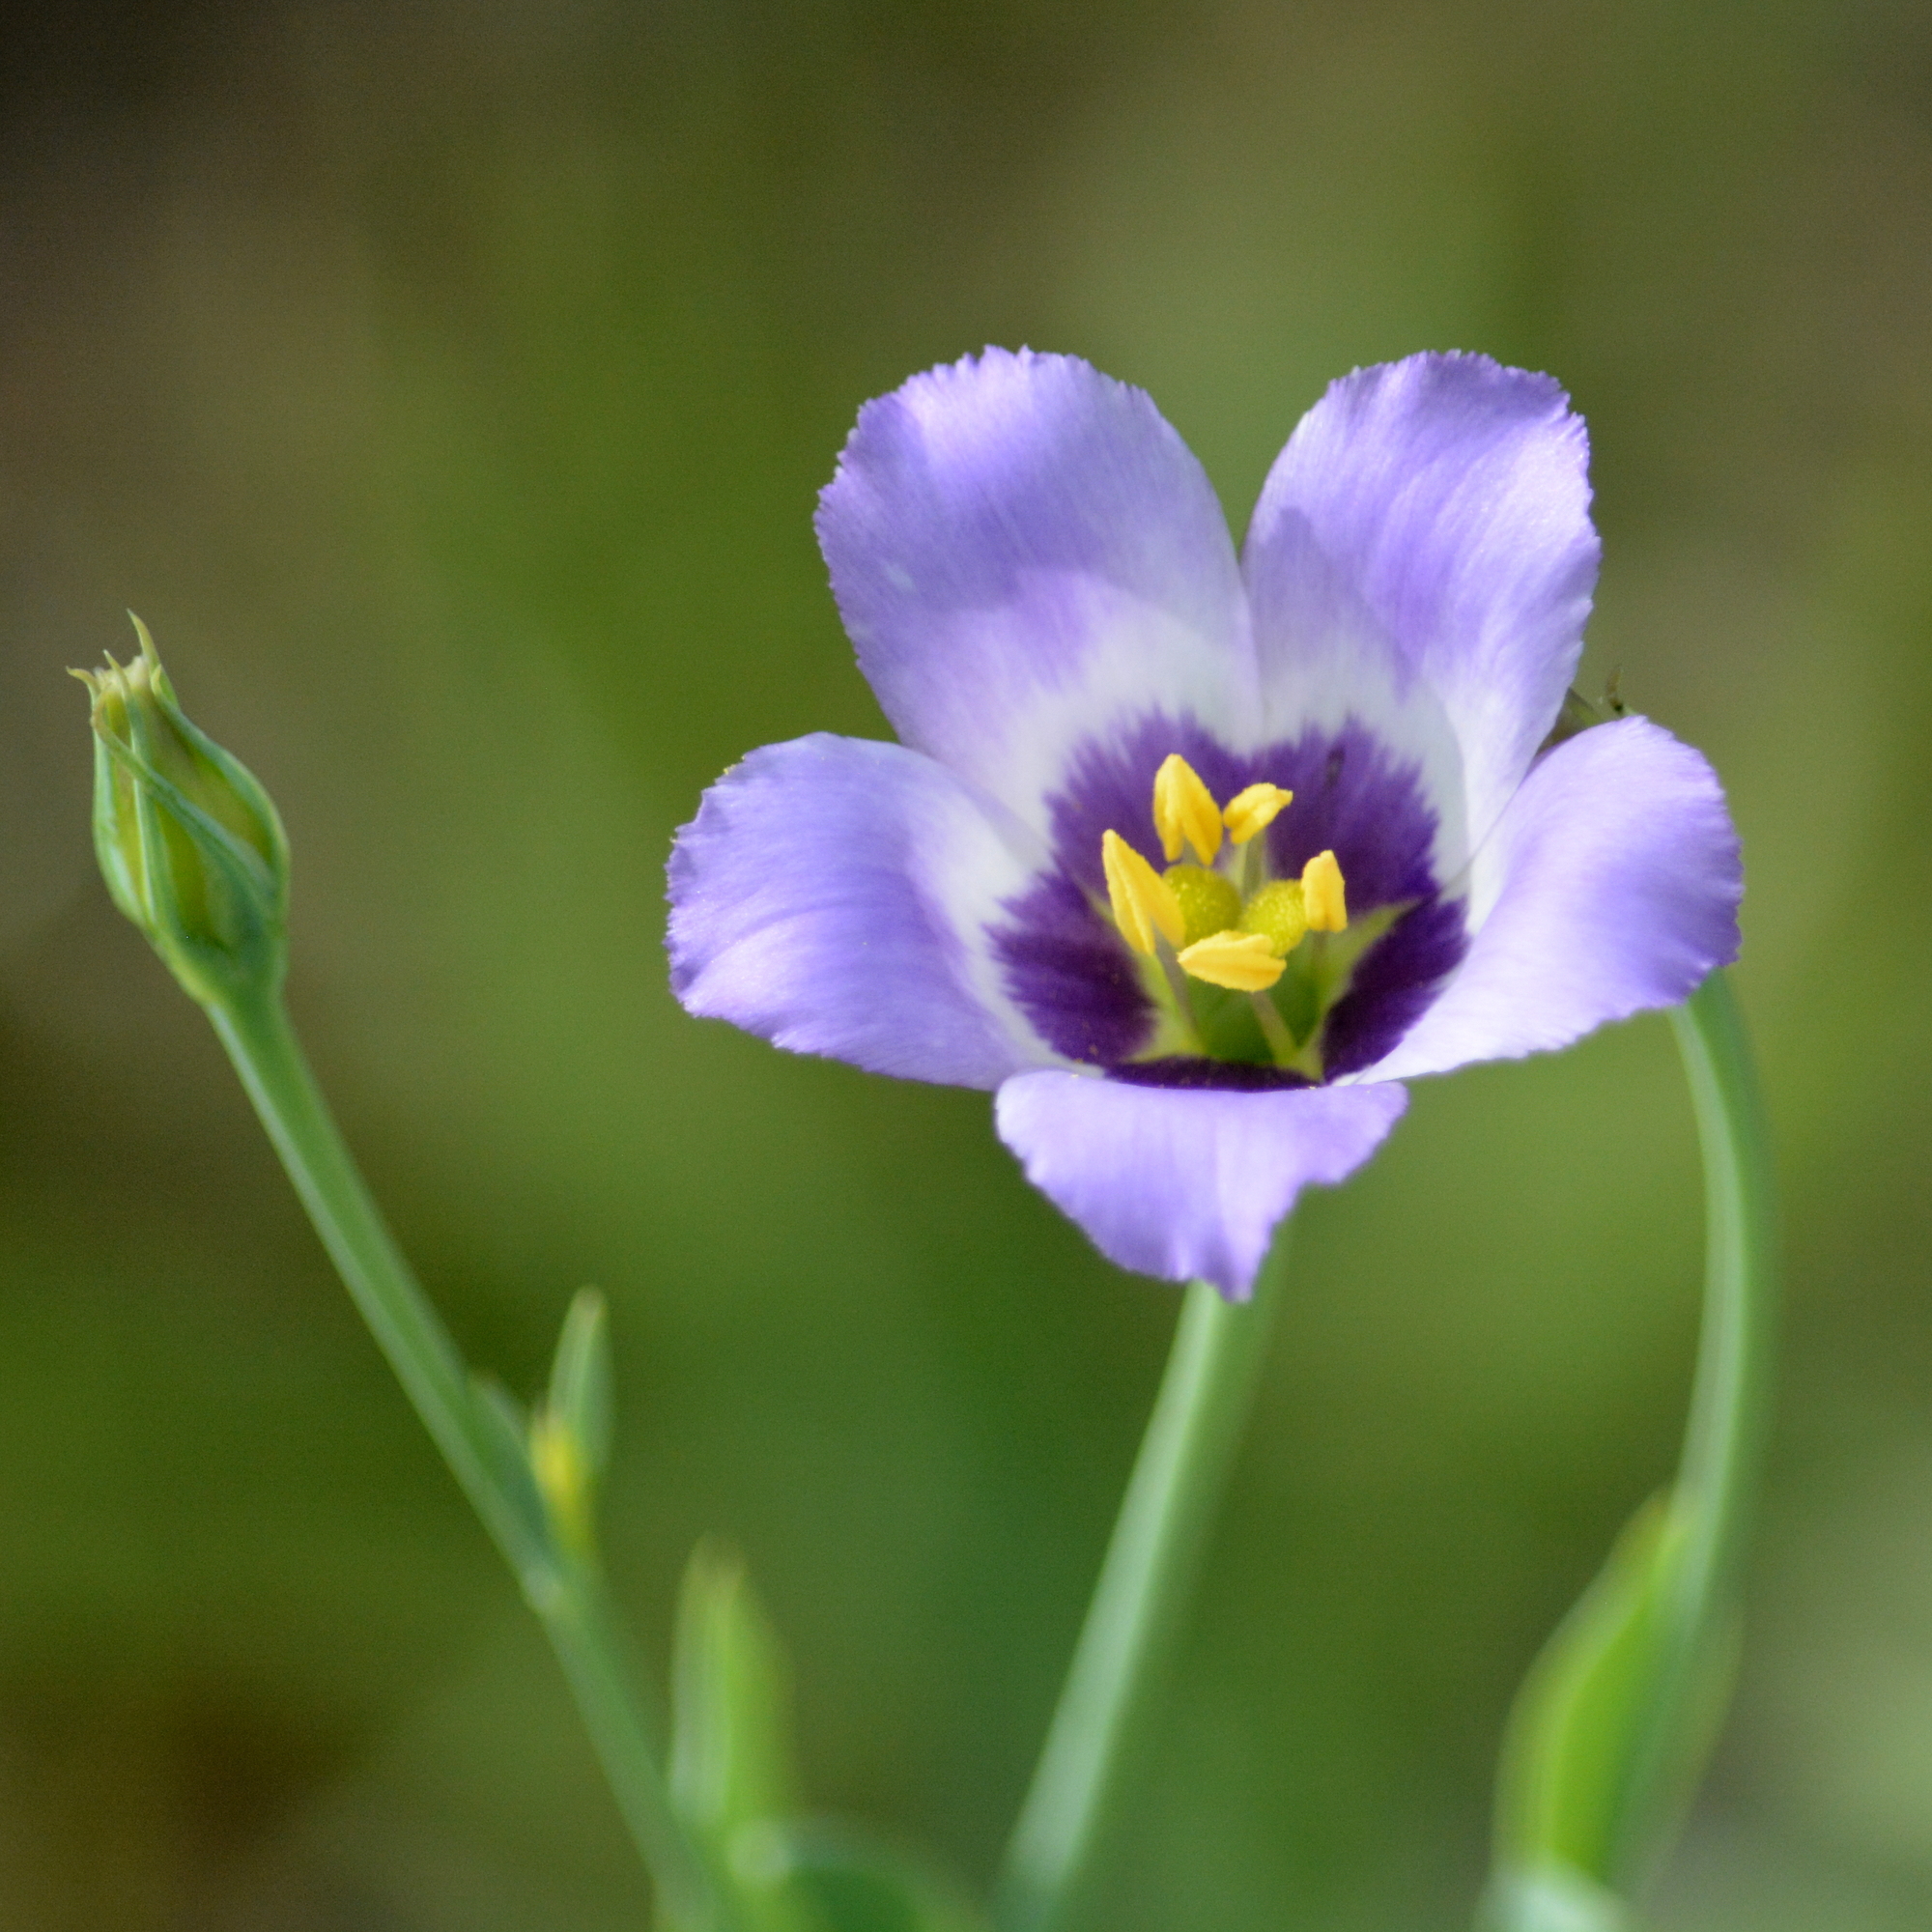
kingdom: Plantae
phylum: Tracheophyta
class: Magnoliopsida
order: Gentianales
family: Gentianaceae
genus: Eustoma
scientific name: Eustoma exaltatum
